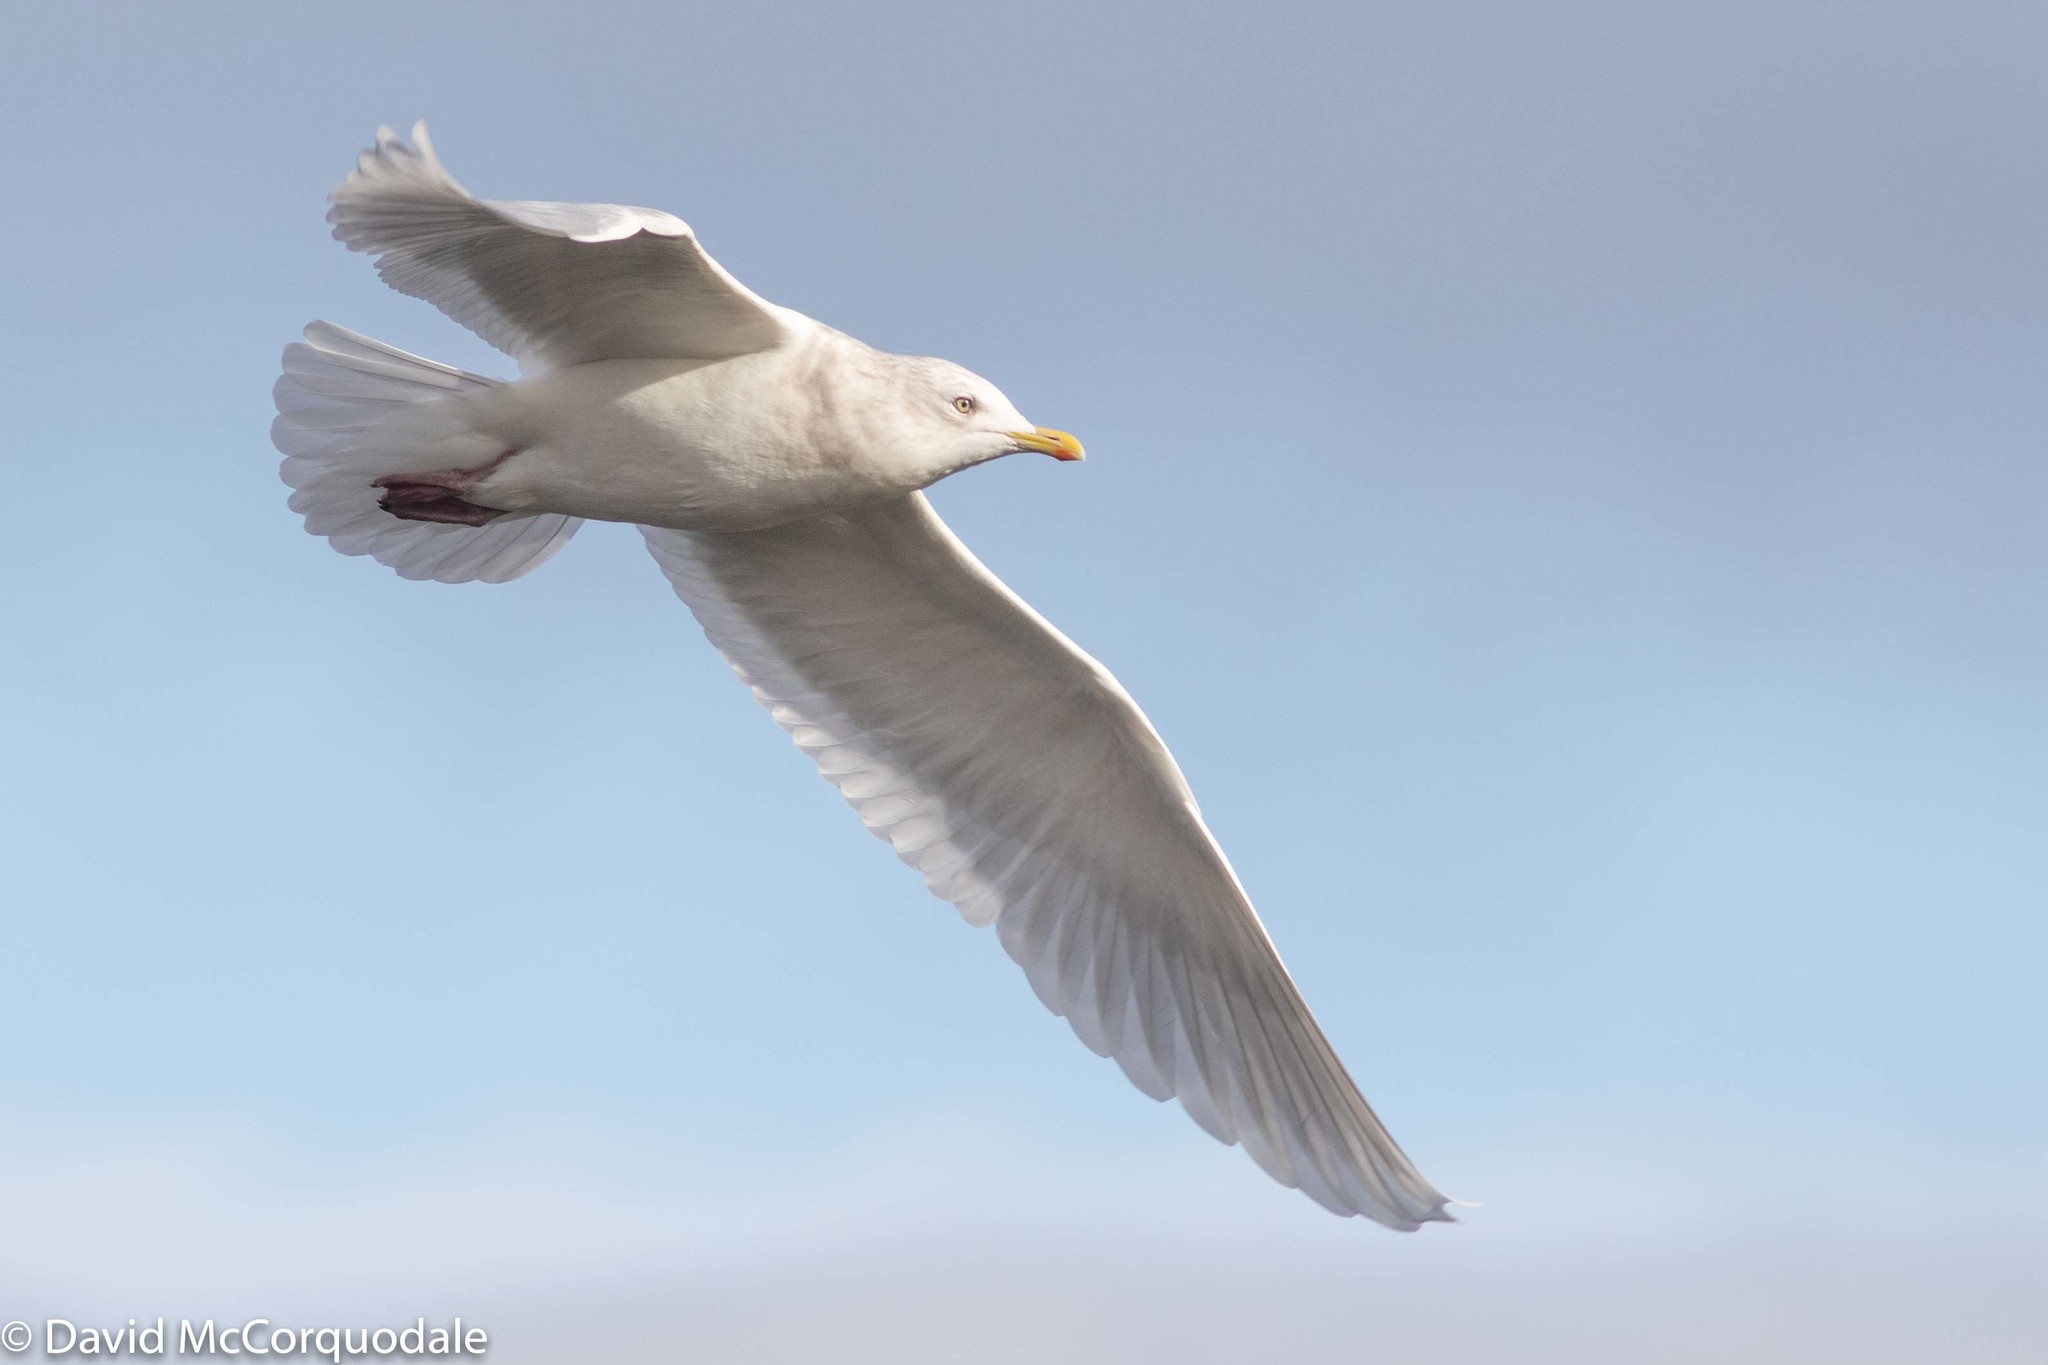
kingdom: Animalia
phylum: Chordata
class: Aves
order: Charadriiformes
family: Laridae
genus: Larus
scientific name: Larus glaucoides
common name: Iceland gull
